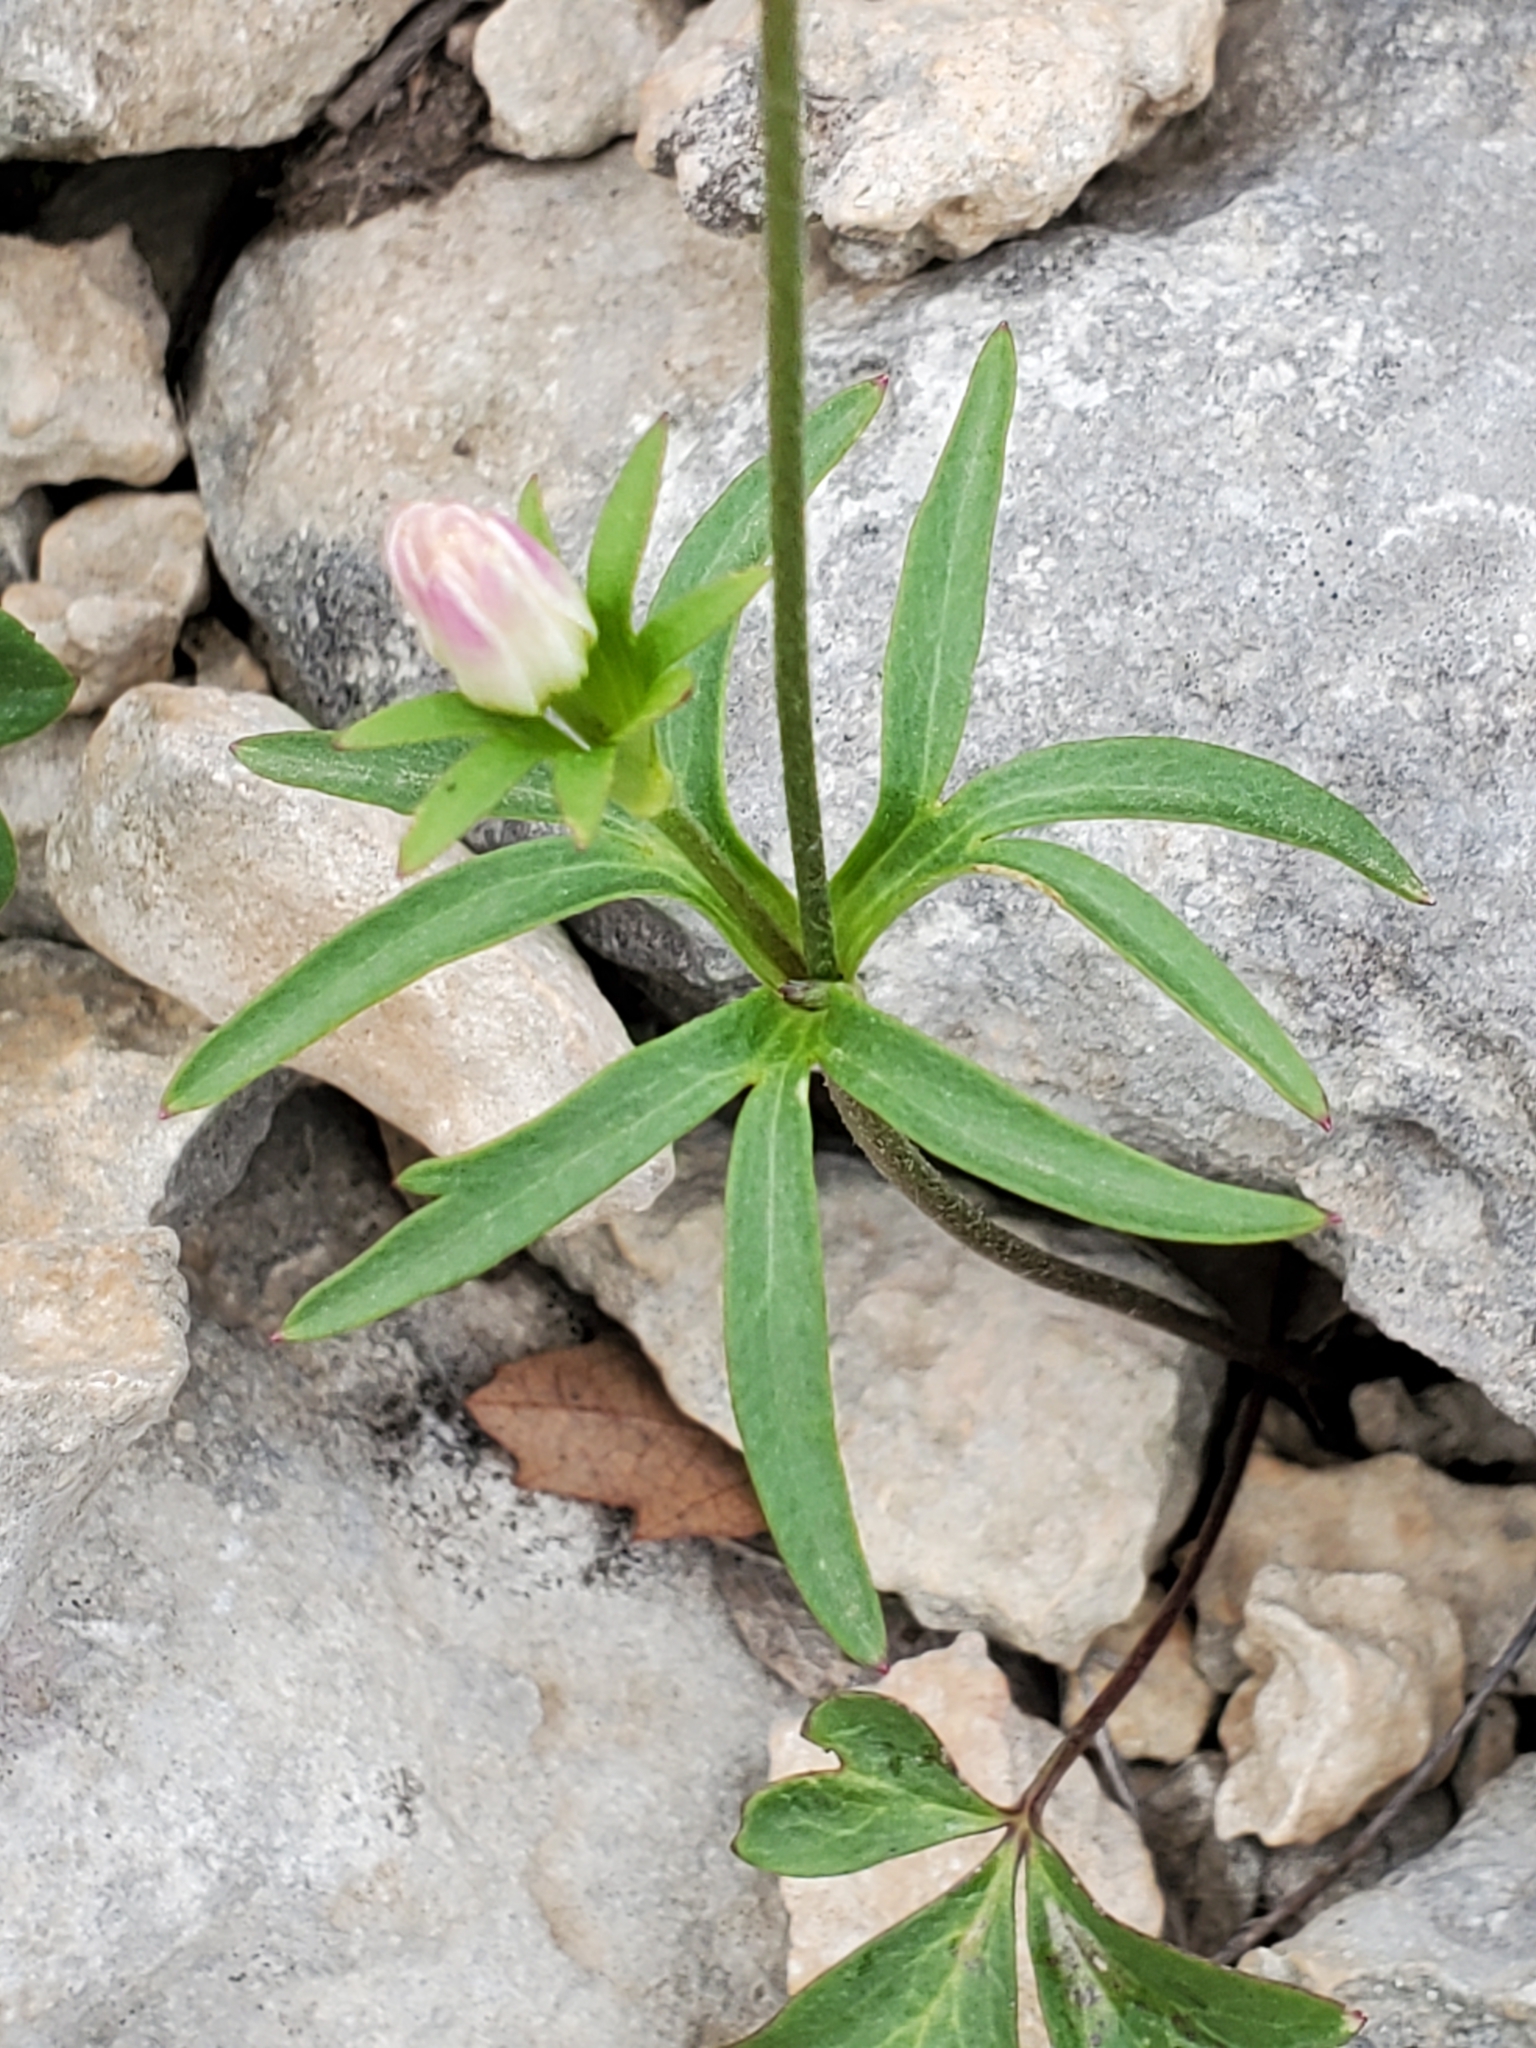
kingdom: Plantae
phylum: Tracheophyta
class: Magnoliopsida
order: Ranunculales
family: Ranunculaceae
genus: Anemone
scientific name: Anemone edwardsiana
